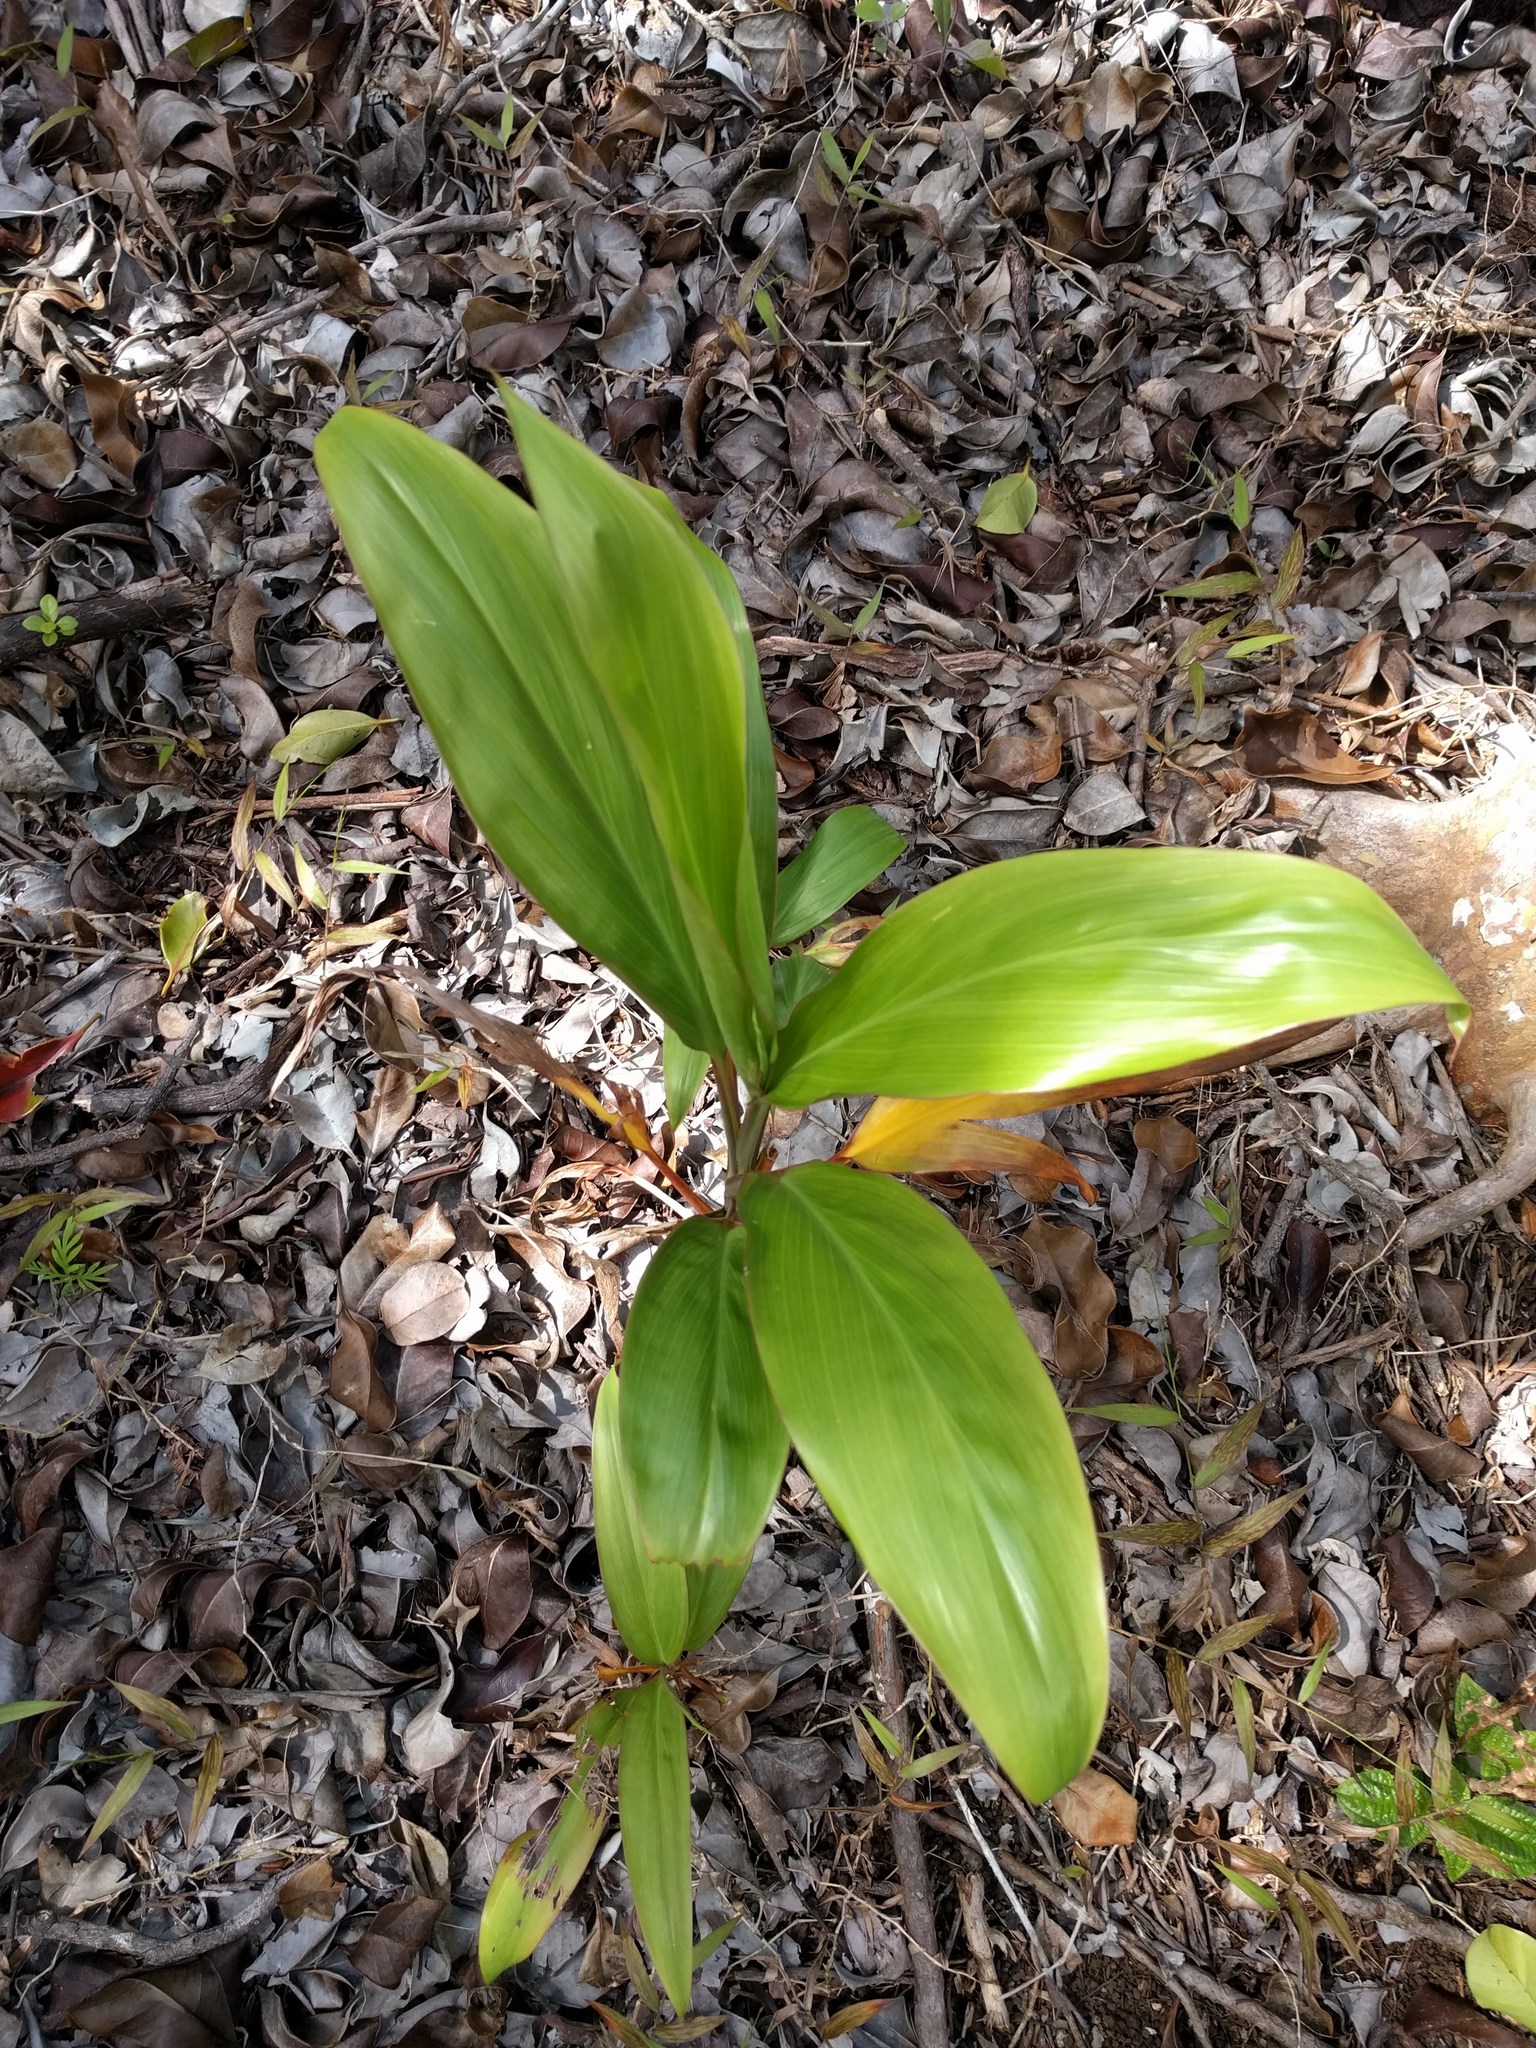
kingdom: Plantae
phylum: Tracheophyta
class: Liliopsida
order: Asparagales
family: Asparagaceae
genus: Cordyline
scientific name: Cordyline fruticosa
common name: Good-luck-plant
